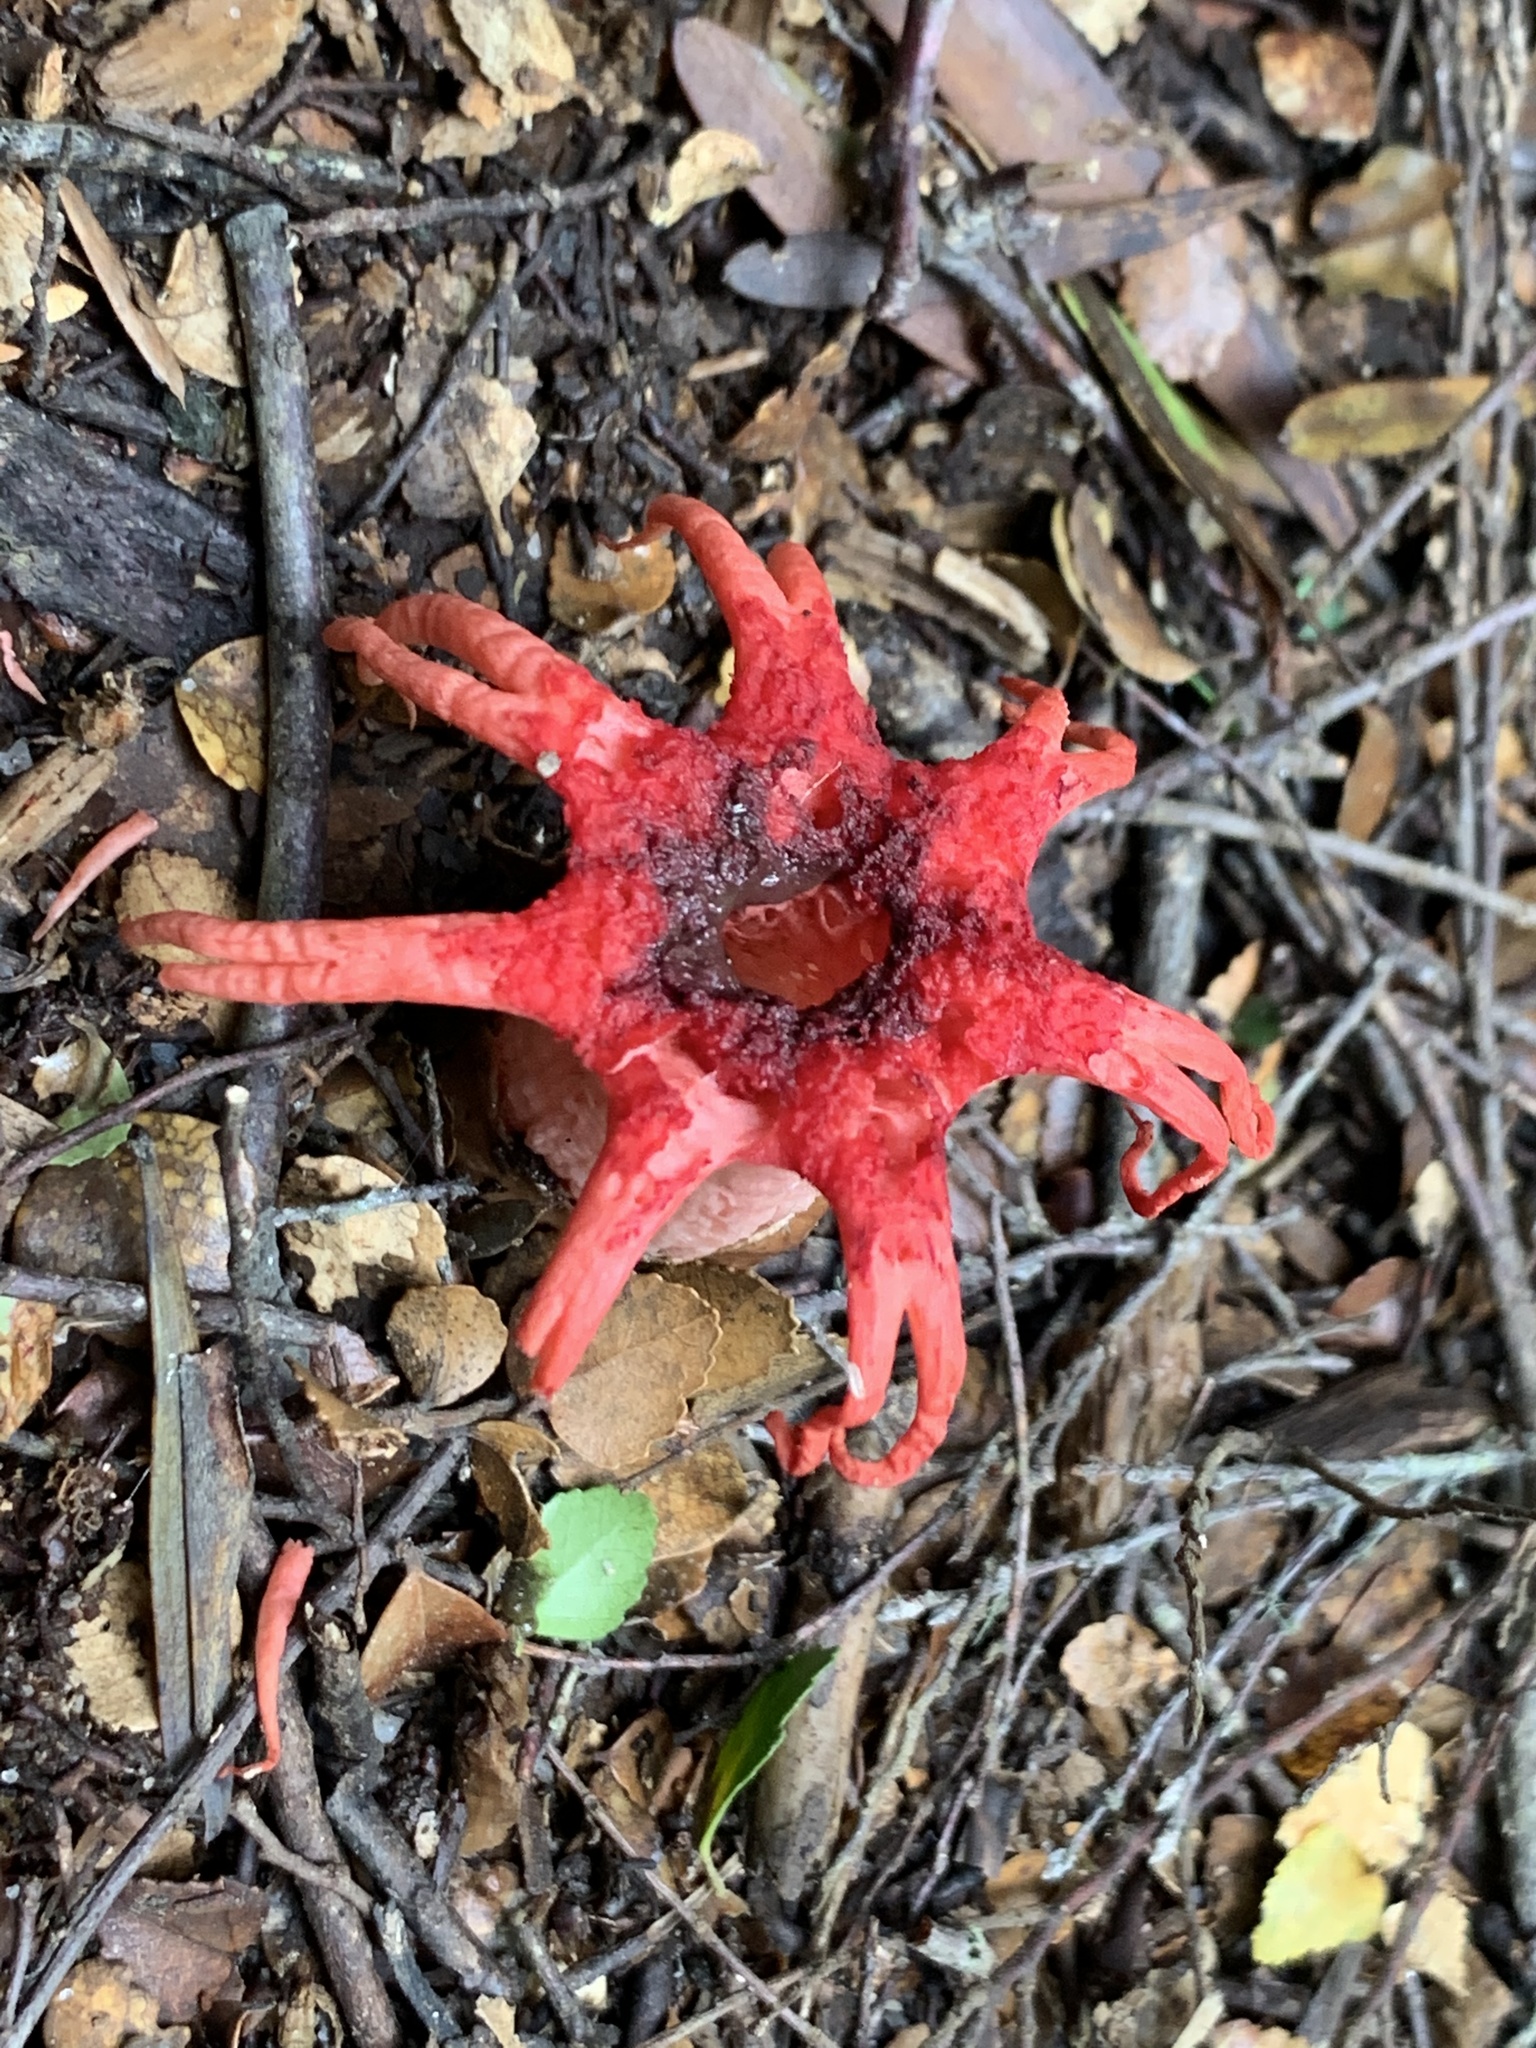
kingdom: Fungi
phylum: Basidiomycota
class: Agaricomycetes
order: Phallales
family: Phallaceae
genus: Aseroe
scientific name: Aseroe rubra
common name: Starfish fungus
